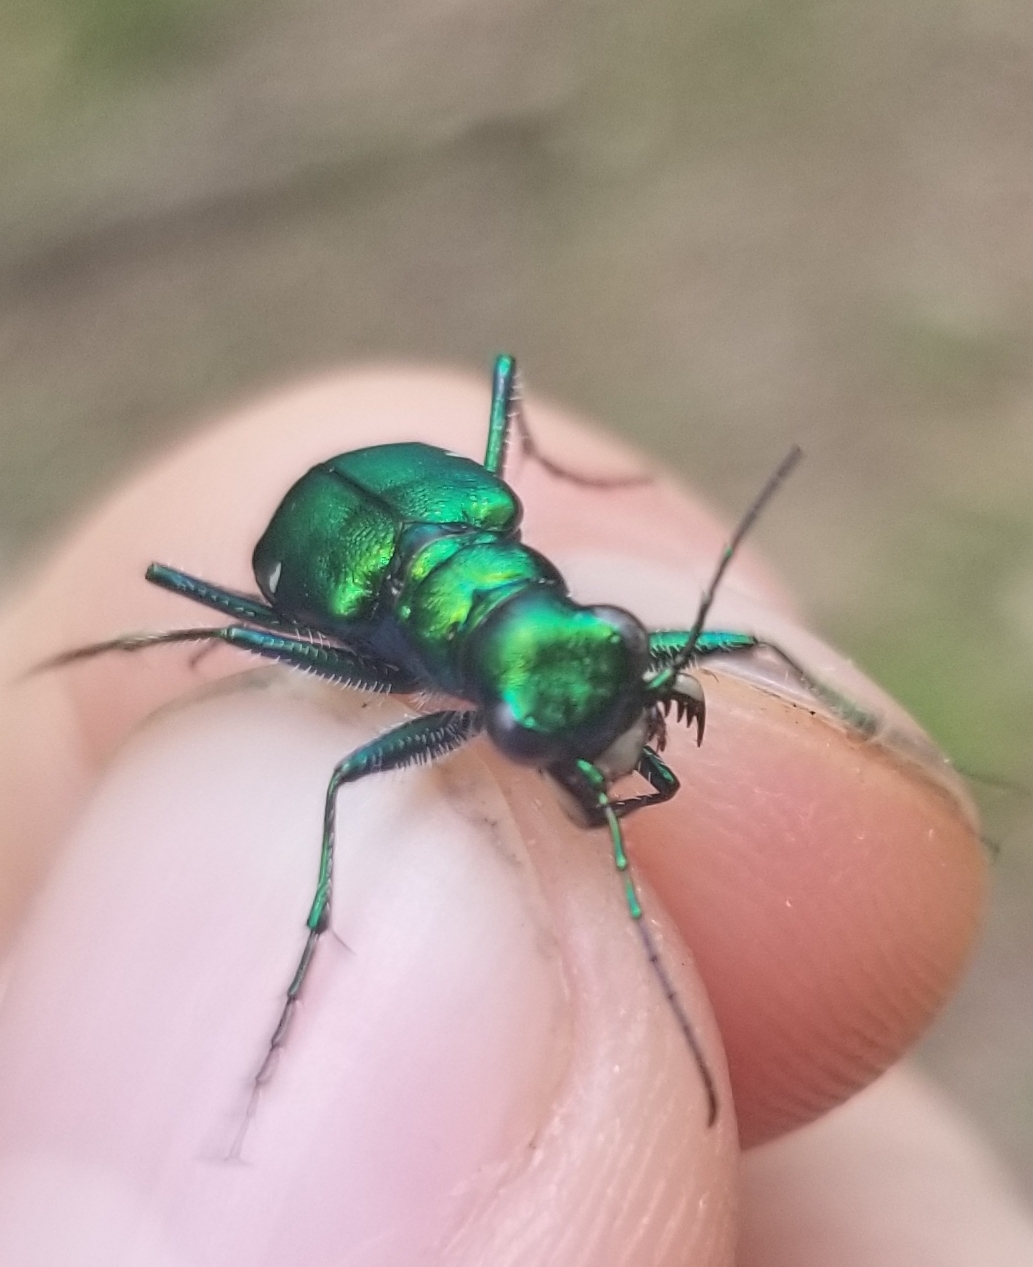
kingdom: Animalia
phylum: Arthropoda
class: Insecta
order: Coleoptera
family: Carabidae
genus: Cicindela
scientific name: Cicindela sexguttata
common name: Six-spotted tiger beetle
